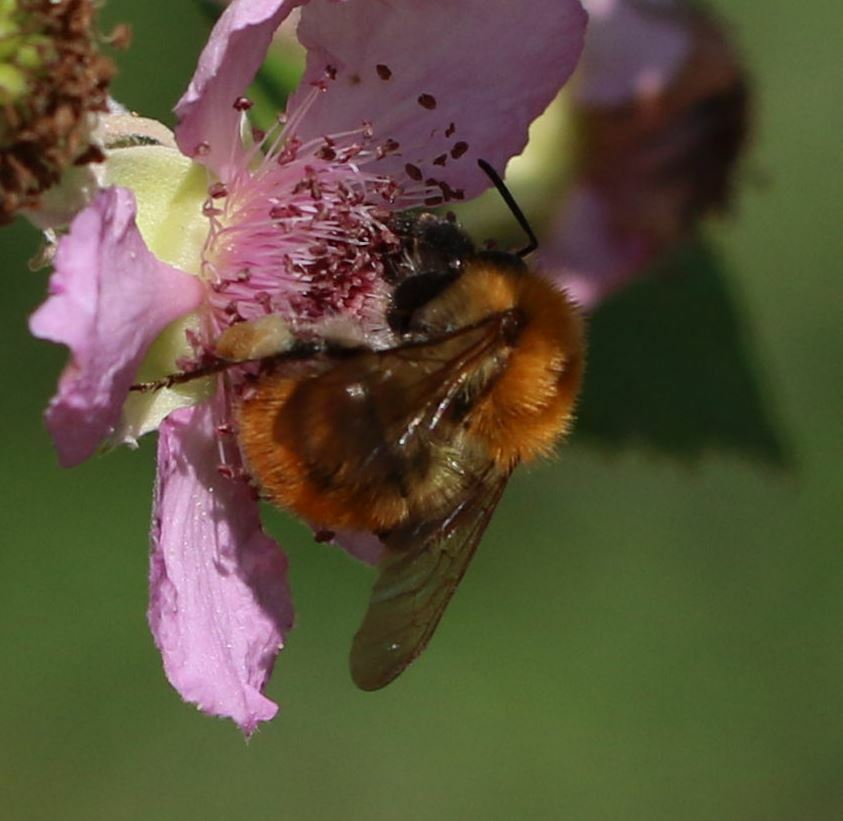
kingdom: Animalia
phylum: Arthropoda
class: Insecta
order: Hymenoptera
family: Apidae
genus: Bombus
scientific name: Bombus pascuorum
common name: Common carder bee
